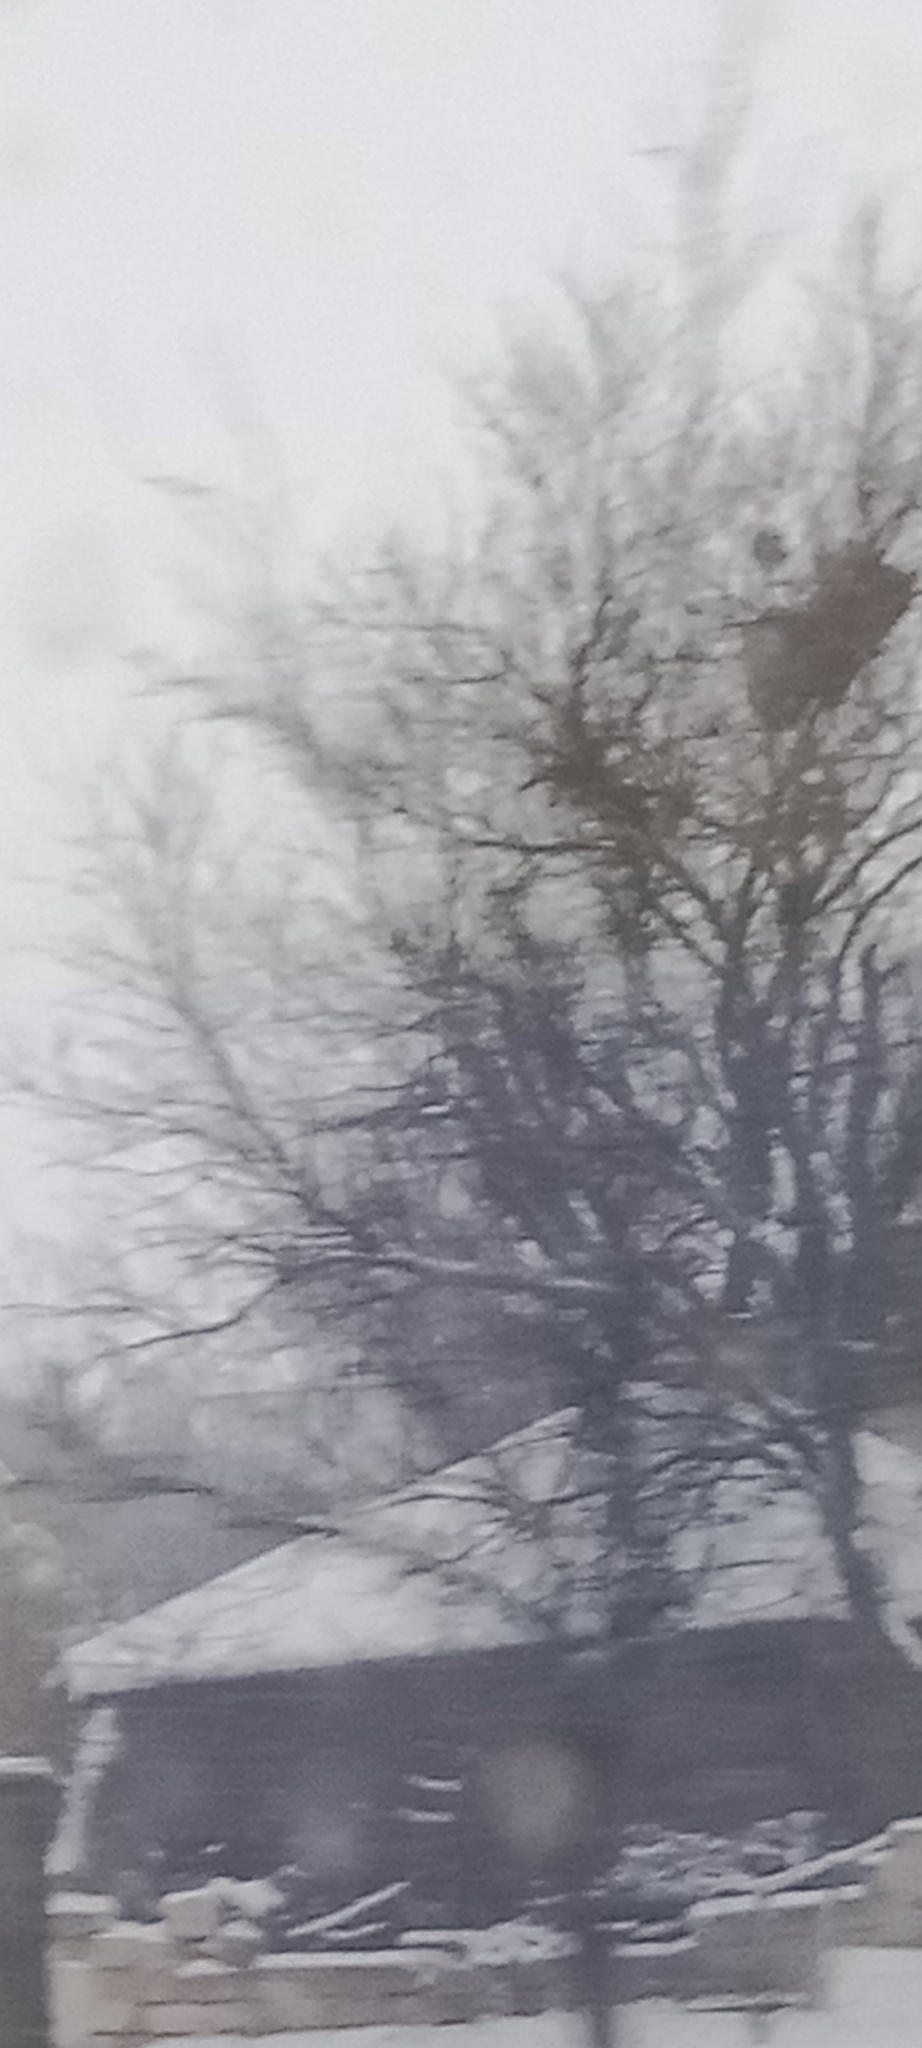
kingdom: Plantae
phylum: Tracheophyta
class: Magnoliopsida
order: Santalales
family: Viscaceae
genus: Viscum
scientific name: Viscum album
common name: Mistletoe
